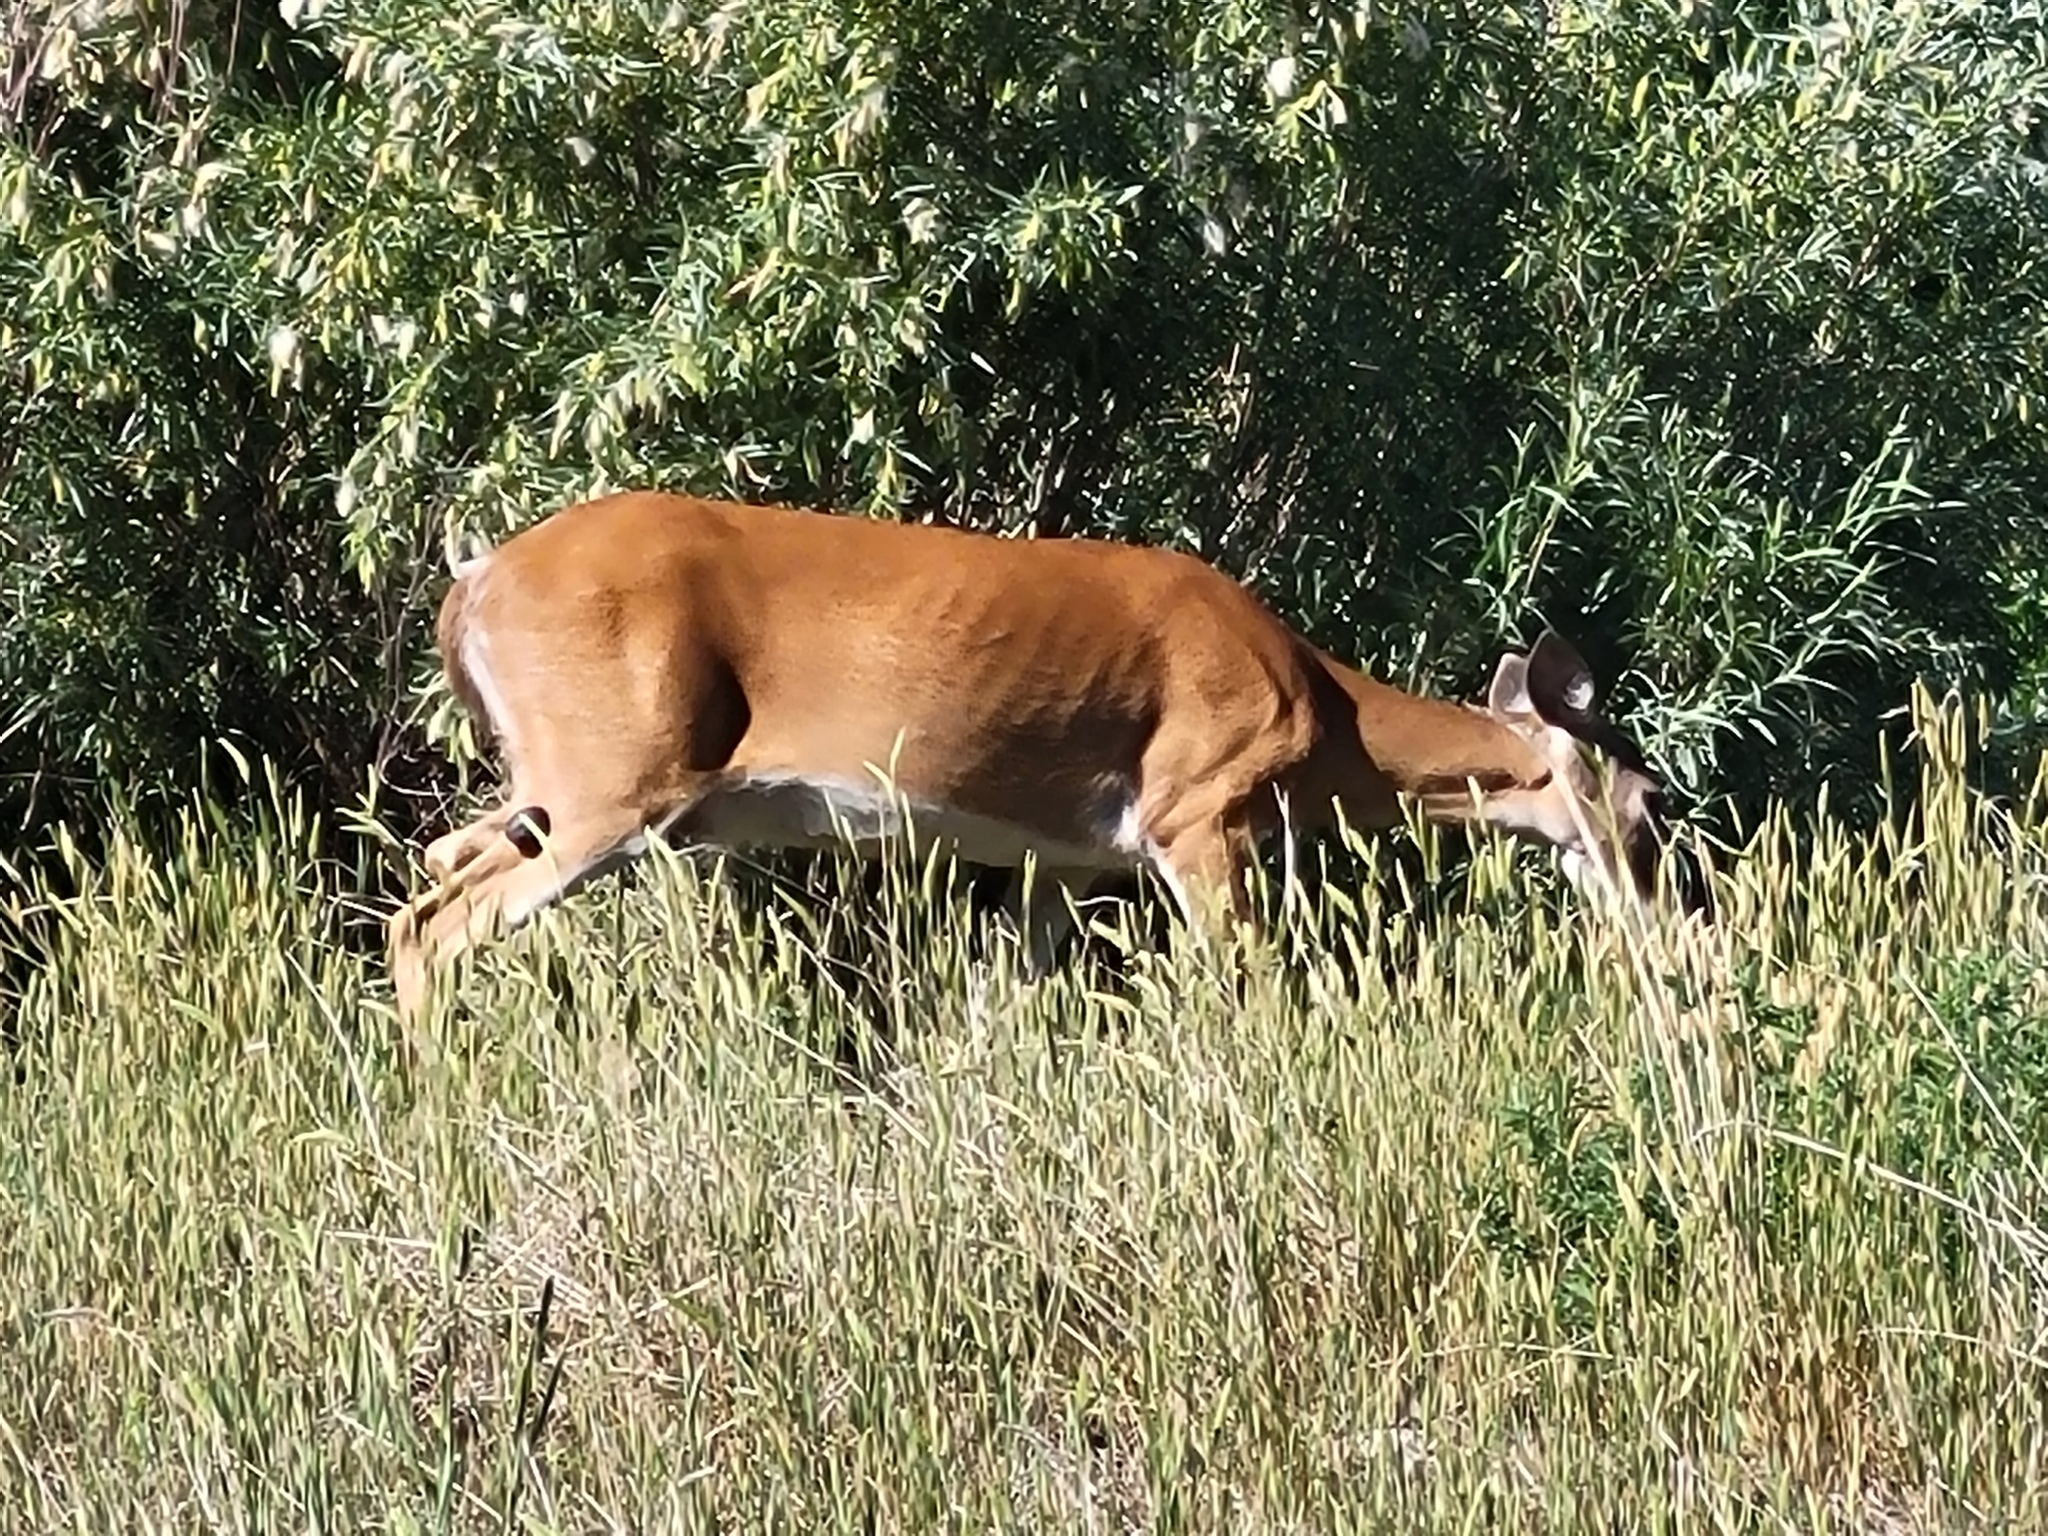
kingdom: Animalia
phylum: Chordata
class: Mammalia
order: Artiodactyla
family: Cervidae
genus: Odocoileus
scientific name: Odocoileus virginianus
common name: White-tailed deer
